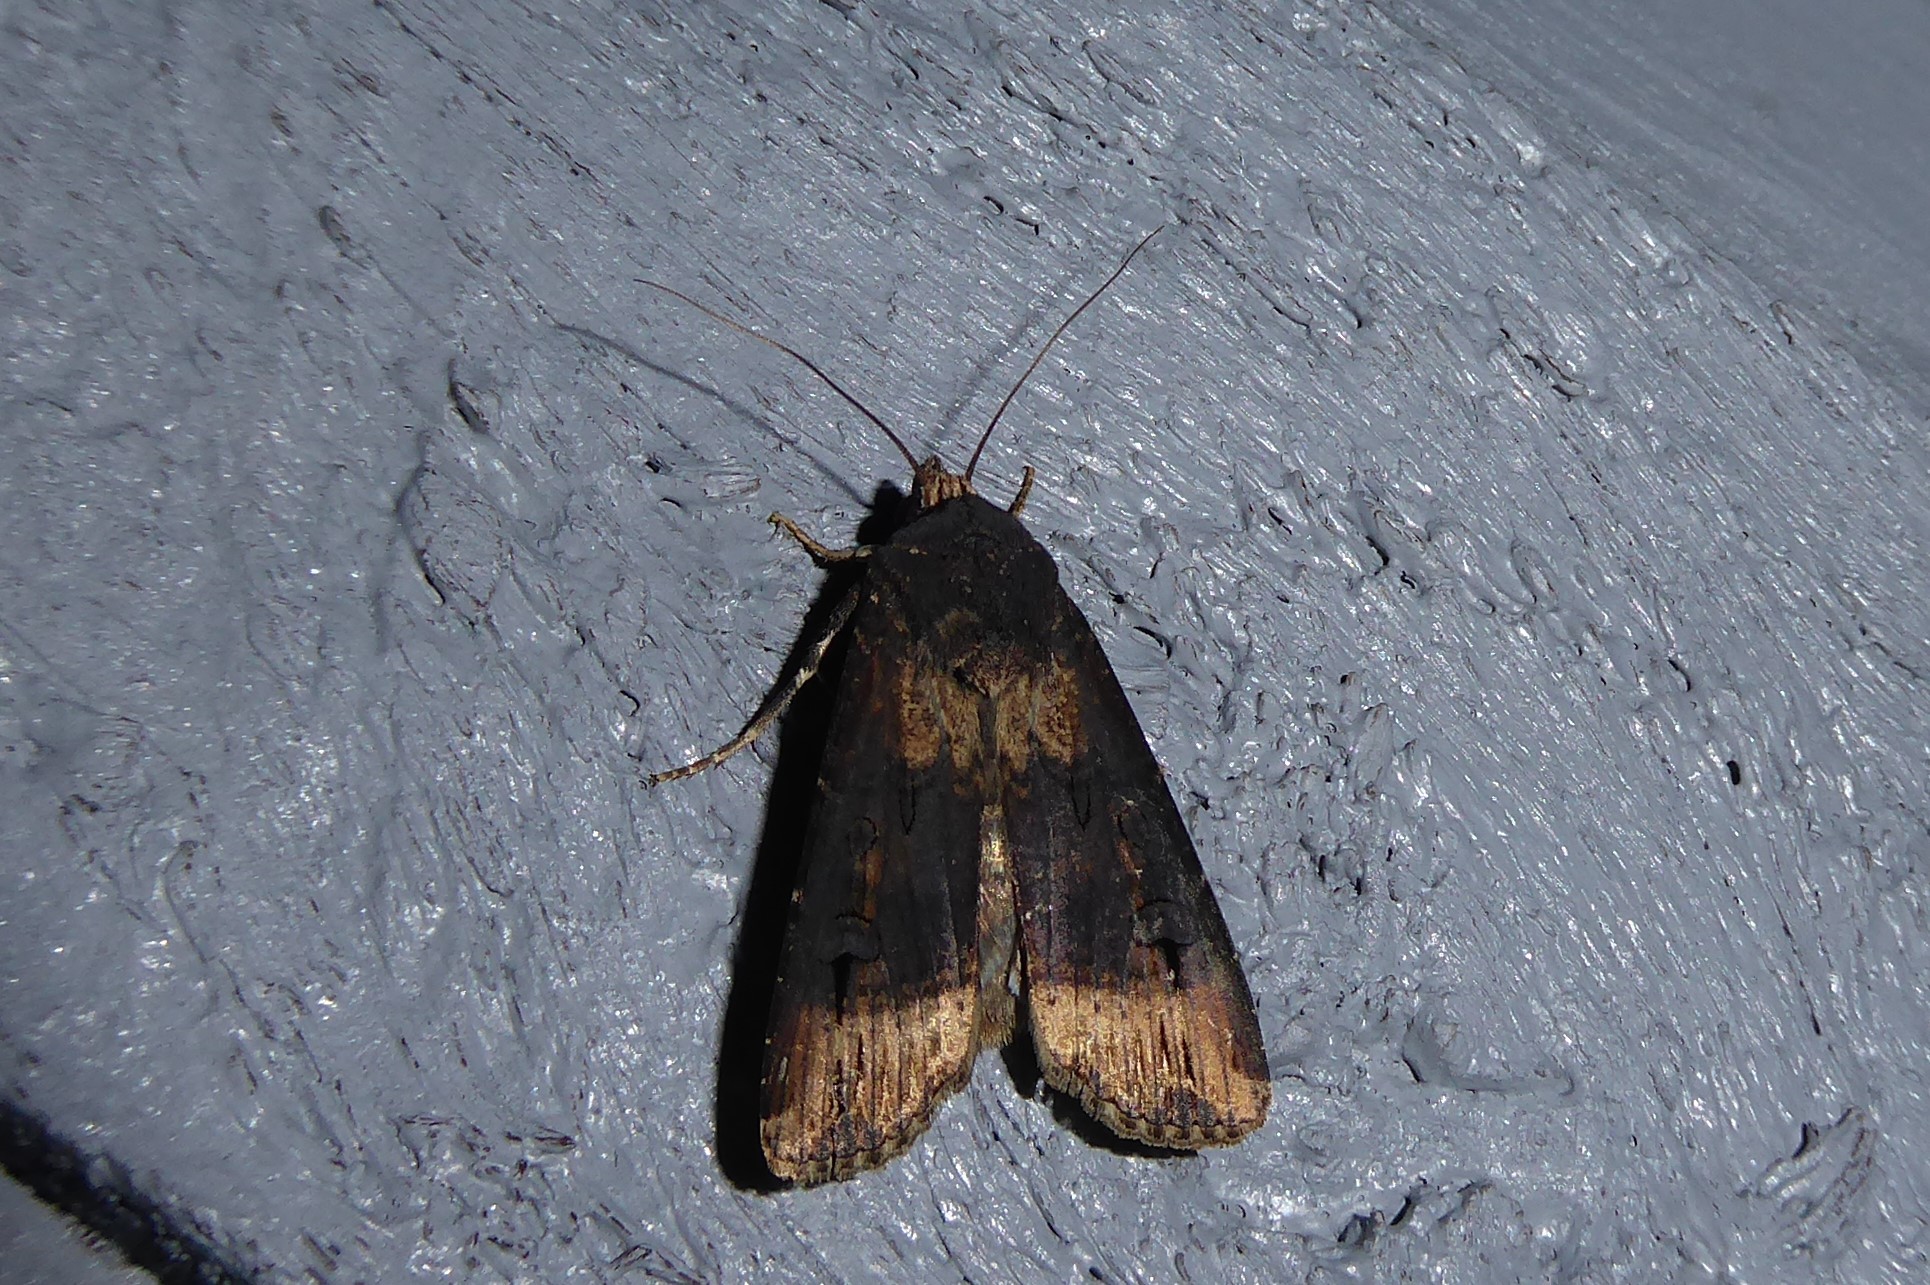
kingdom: Animalia
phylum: Arthropoda
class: Insecta
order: Lepidoptera
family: Noctuidae
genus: Agrotis
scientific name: Agrotis ipsilon
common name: Dark sword-grass
